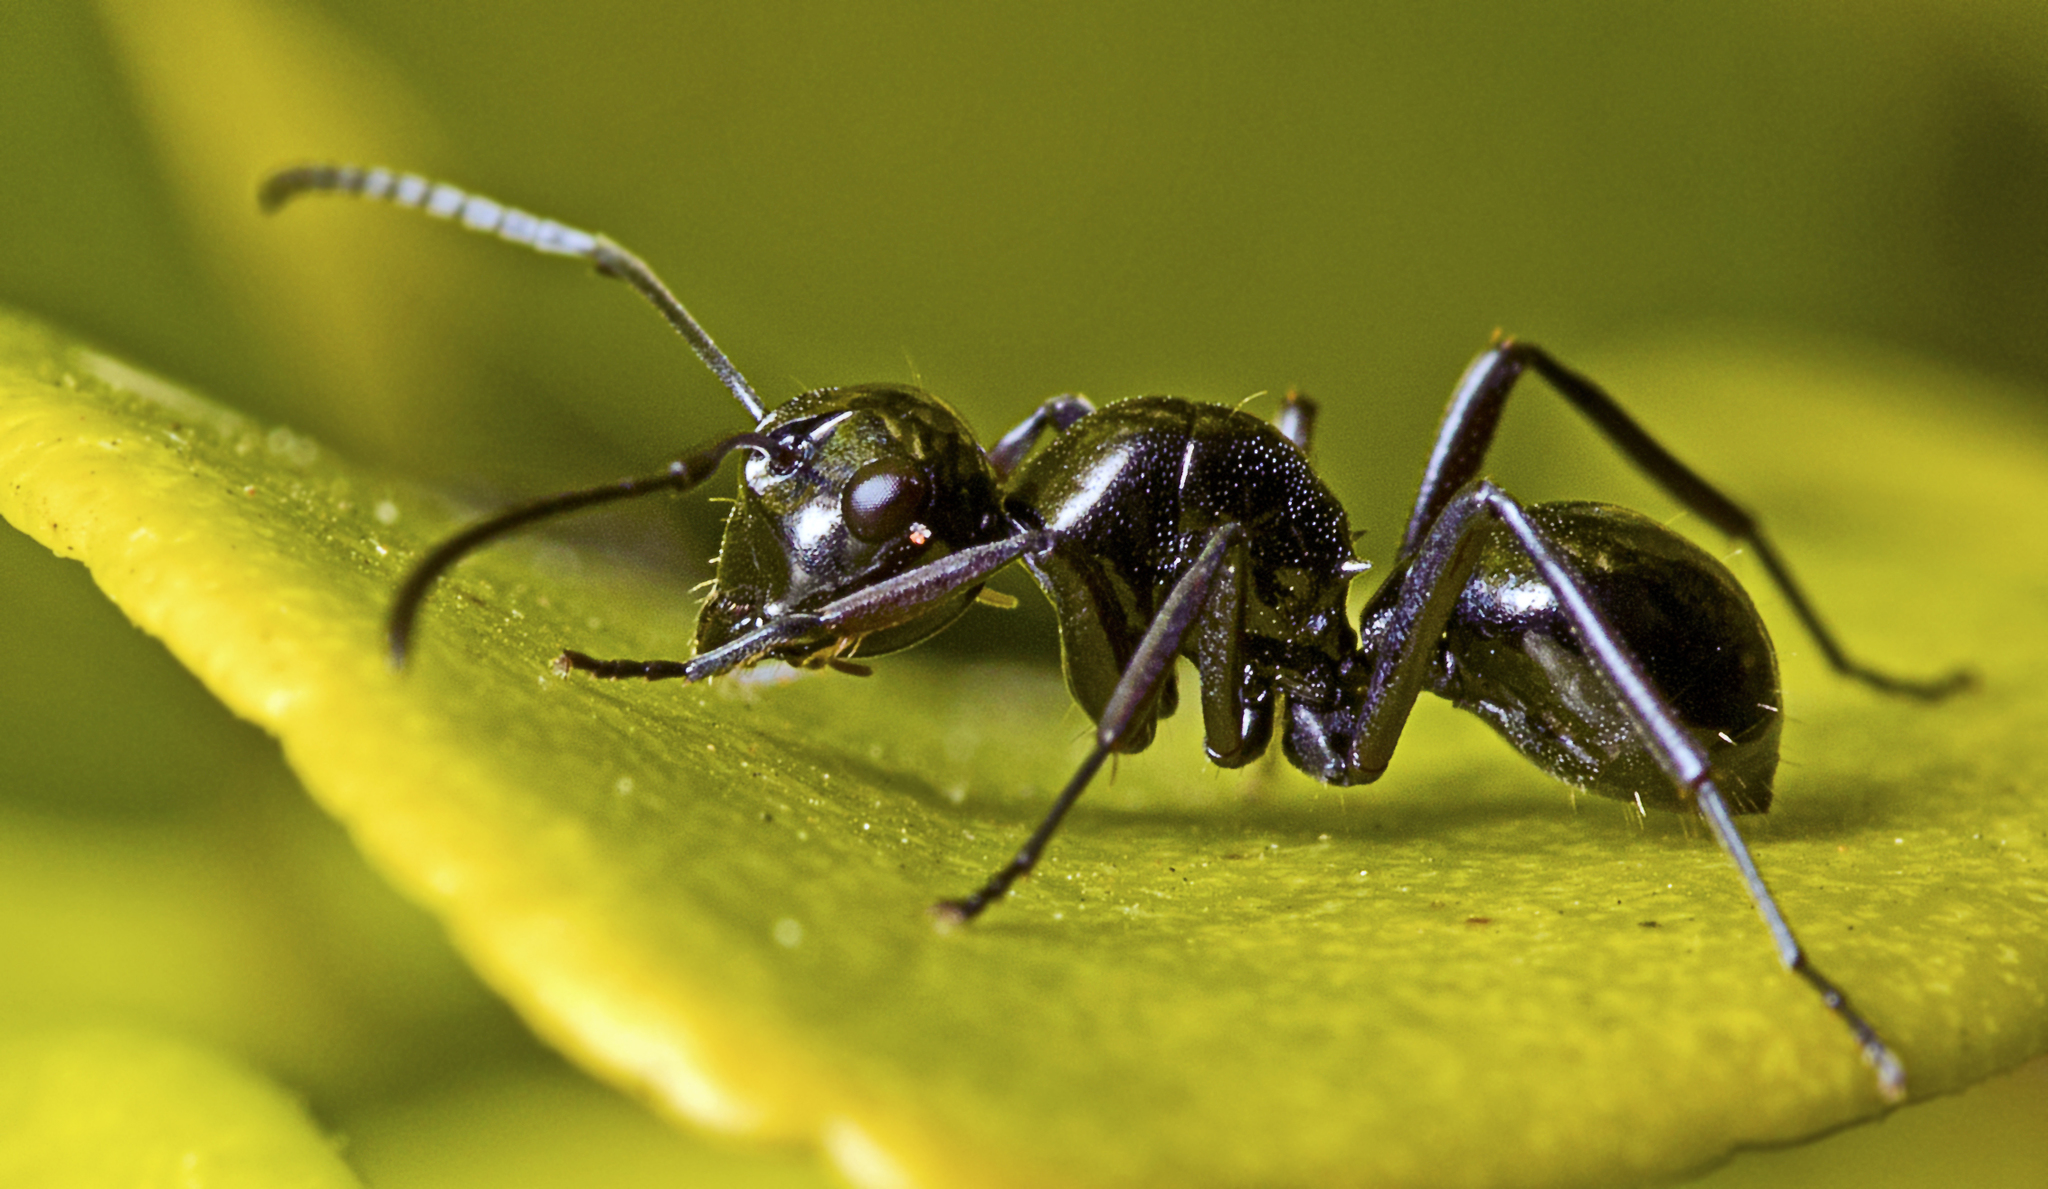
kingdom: Animalia
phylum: Arthropoda
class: Insecta
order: Hymenoptera
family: Formicidae
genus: Polyrhachis
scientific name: Polyrhachis australis
